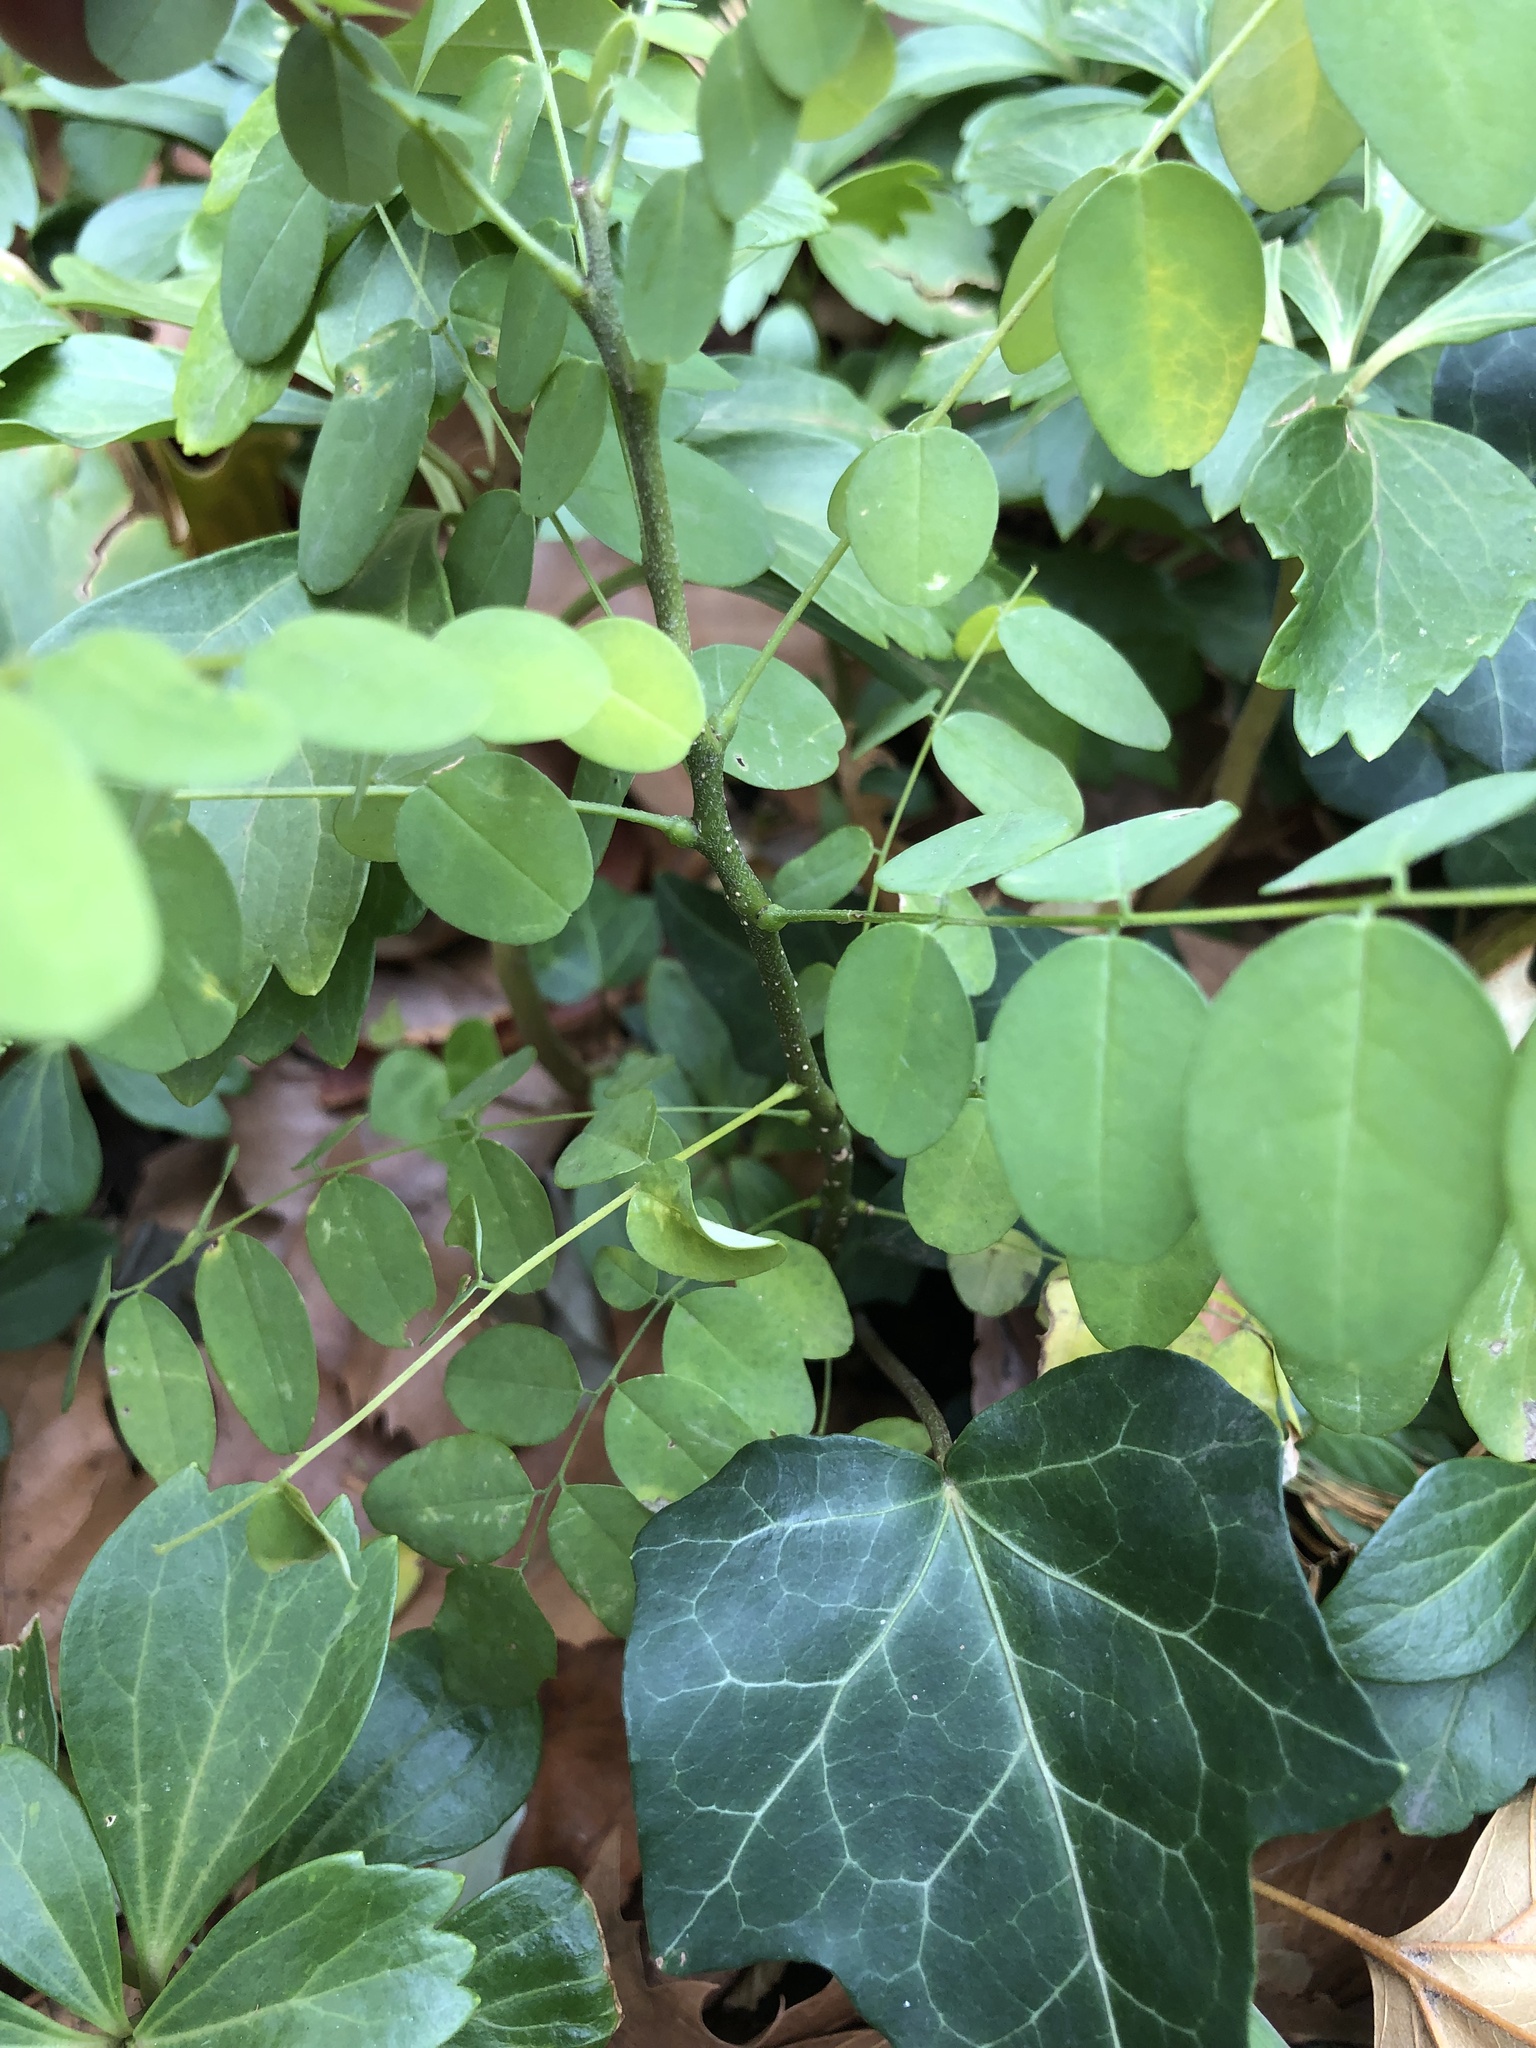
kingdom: Plantae
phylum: Tracheophyta
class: Magnoliopsida
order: Fabales
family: Fabaceae
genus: Styphnolobium
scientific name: Styphnolobium japonicum
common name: Chinese scholartree
